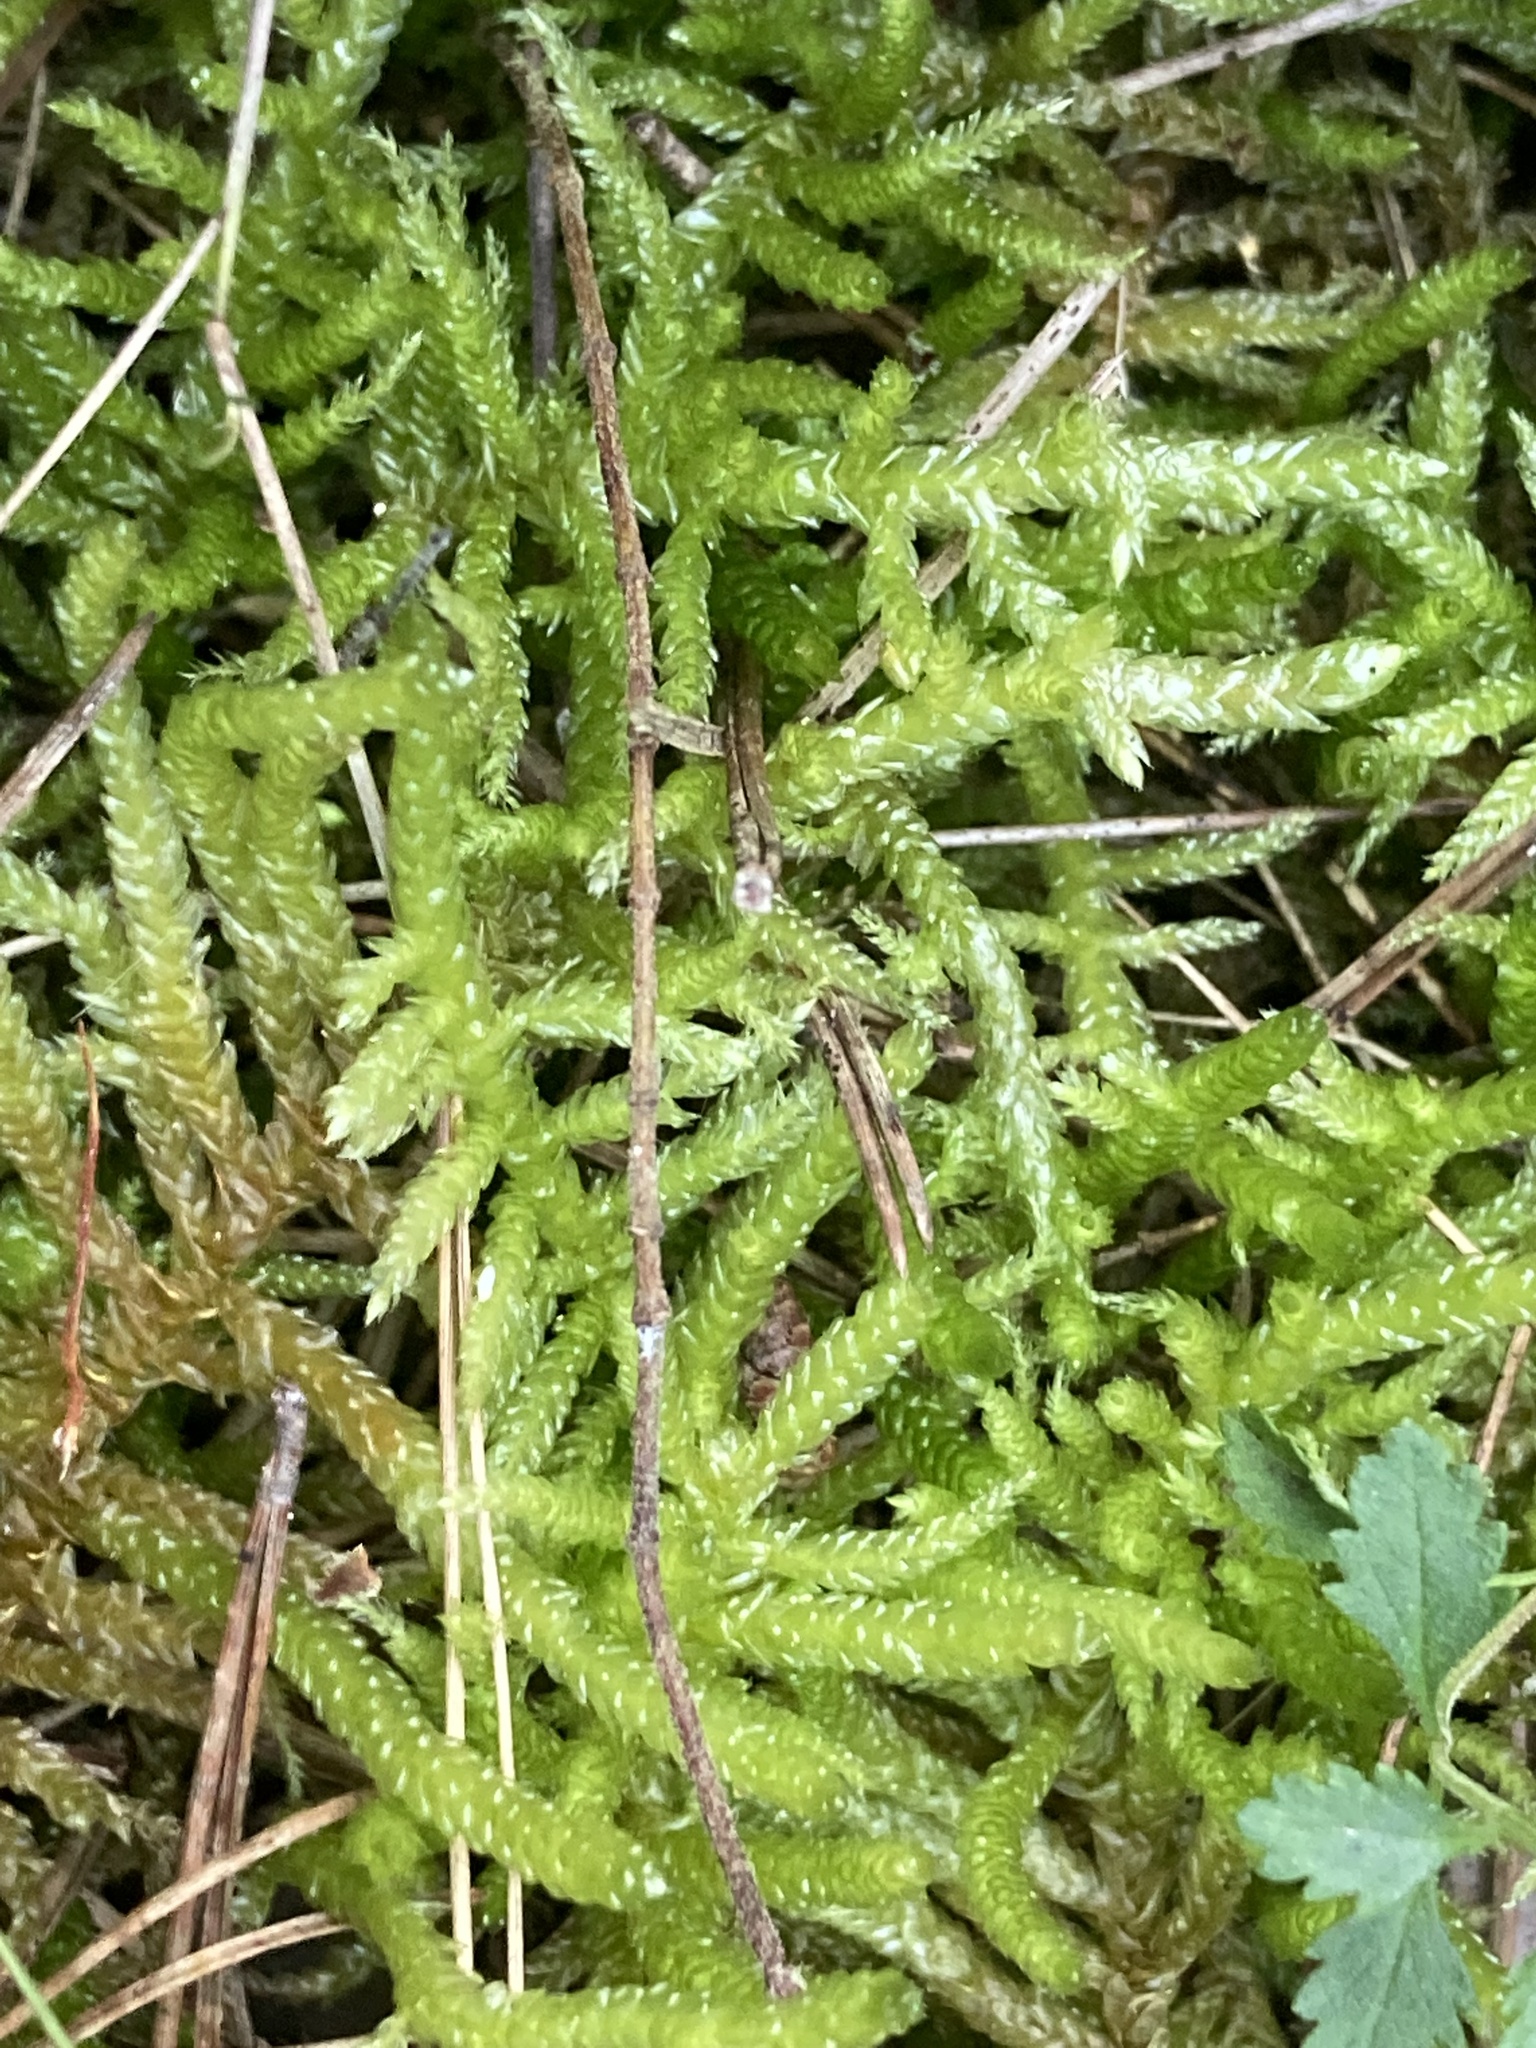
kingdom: Plantae
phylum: Bryophyta
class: Bryopsida
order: Hypnales
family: Brachytheciaceae
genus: Pseudoscleropodium
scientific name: Pseudoscleropodium purum
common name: Neat feather-moss
